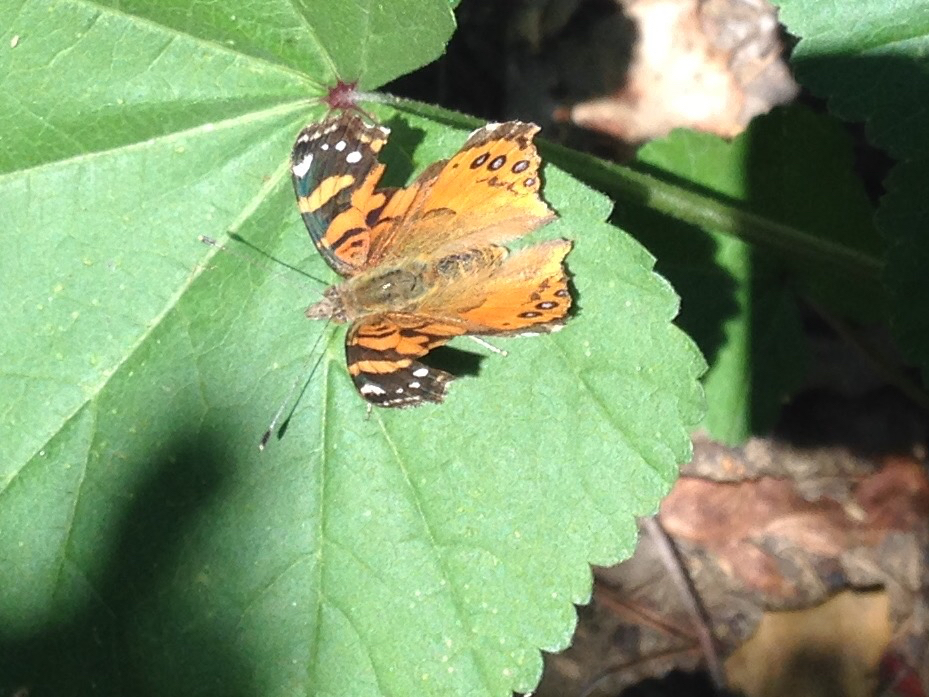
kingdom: Animalia
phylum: Arthropoda
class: Insecta
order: Lepidoptera
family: Nymphalidae
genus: Vanessa
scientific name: Vanessa annabella
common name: West coast lady
